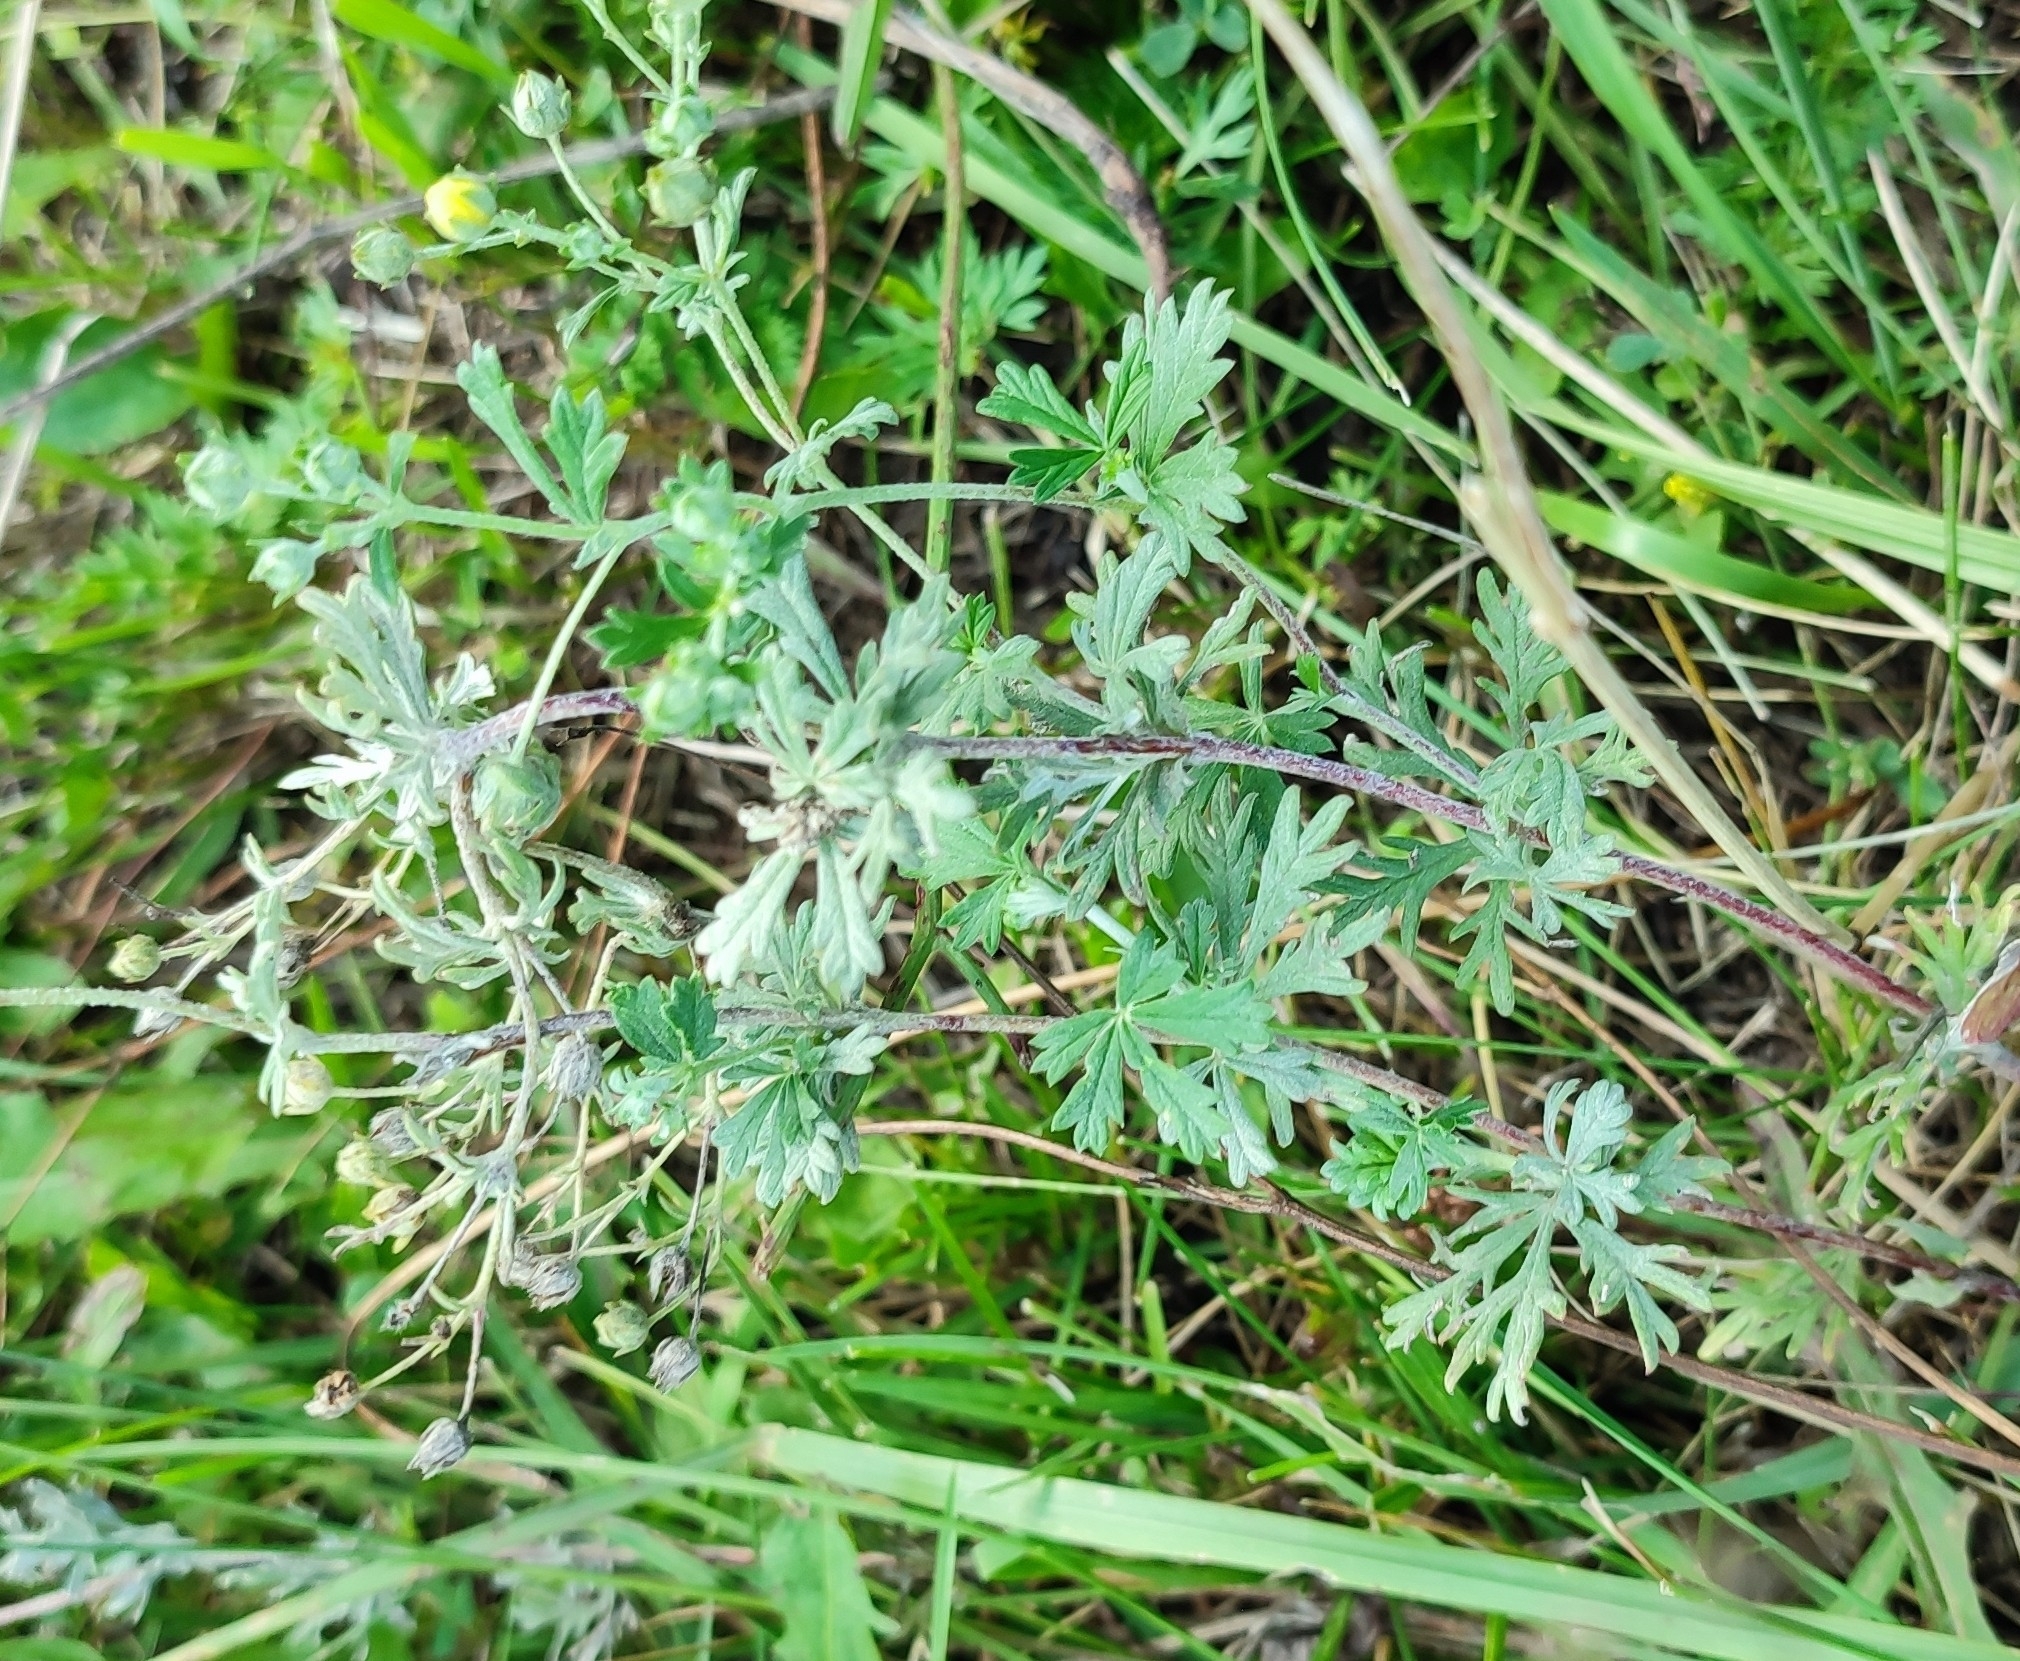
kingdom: Plantae
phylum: Tracheophyta
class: Magnoliopsida
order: Rosales
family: Rosaceae
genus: Potentilla
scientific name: Potentilla argentea
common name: Hoary cinquefoil
